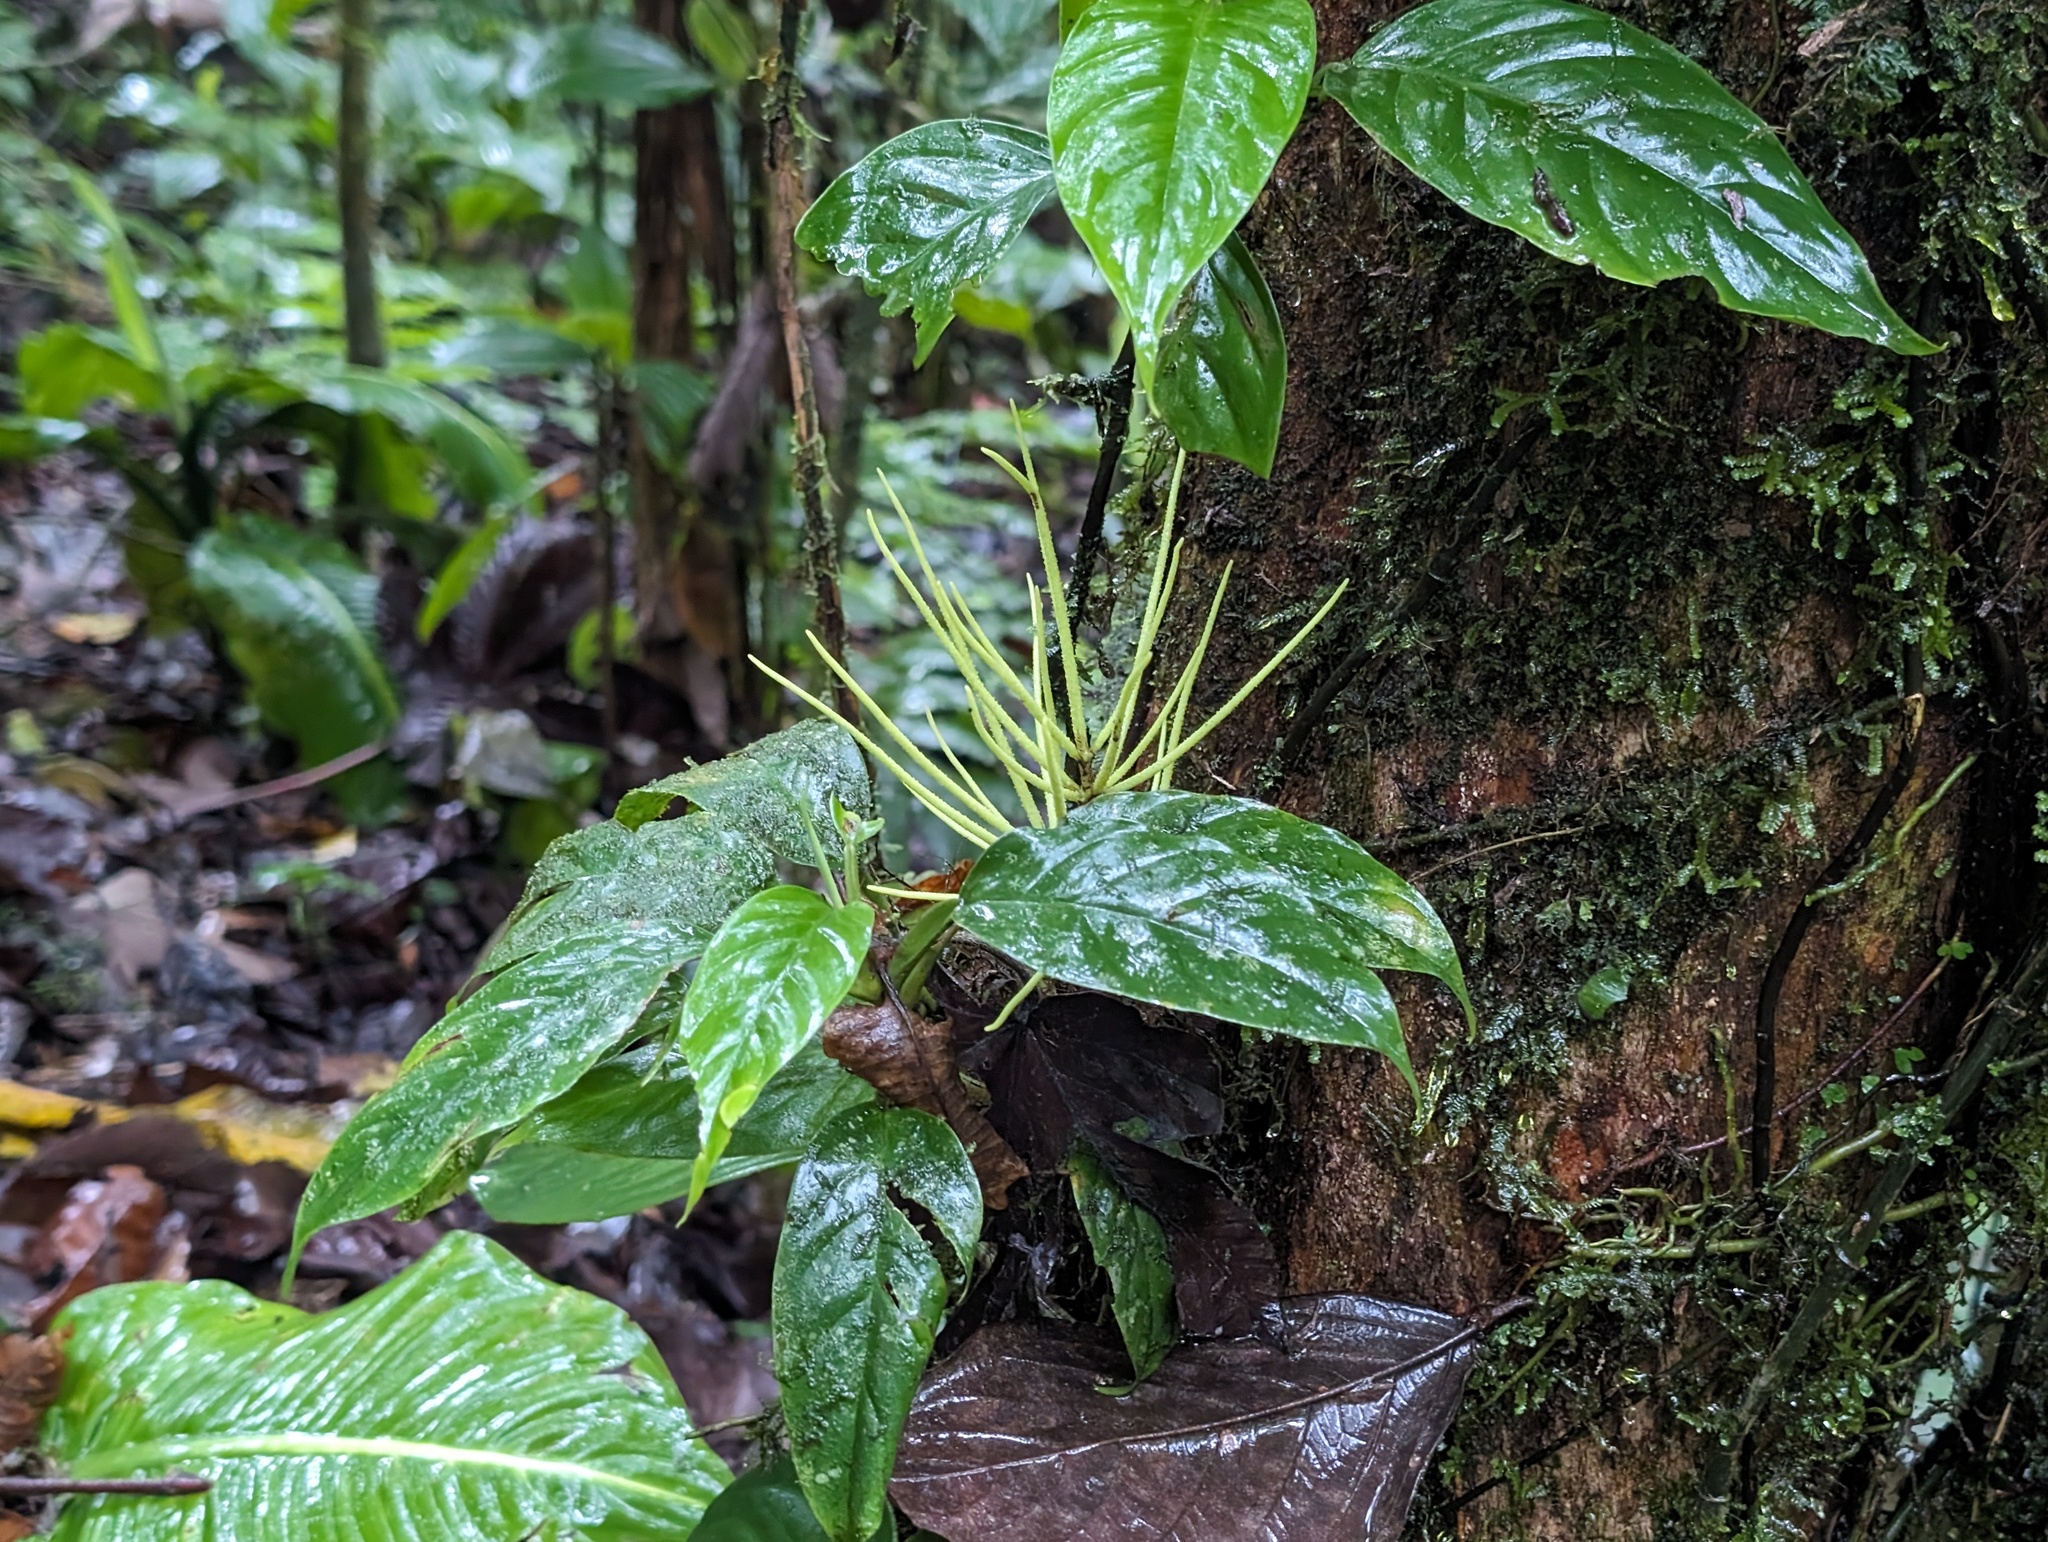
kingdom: Plantae
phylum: Tracheophyta
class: Magnoliopsida
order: Piperales
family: Piperaceae
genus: Peperomia
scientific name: Peperomia striata
